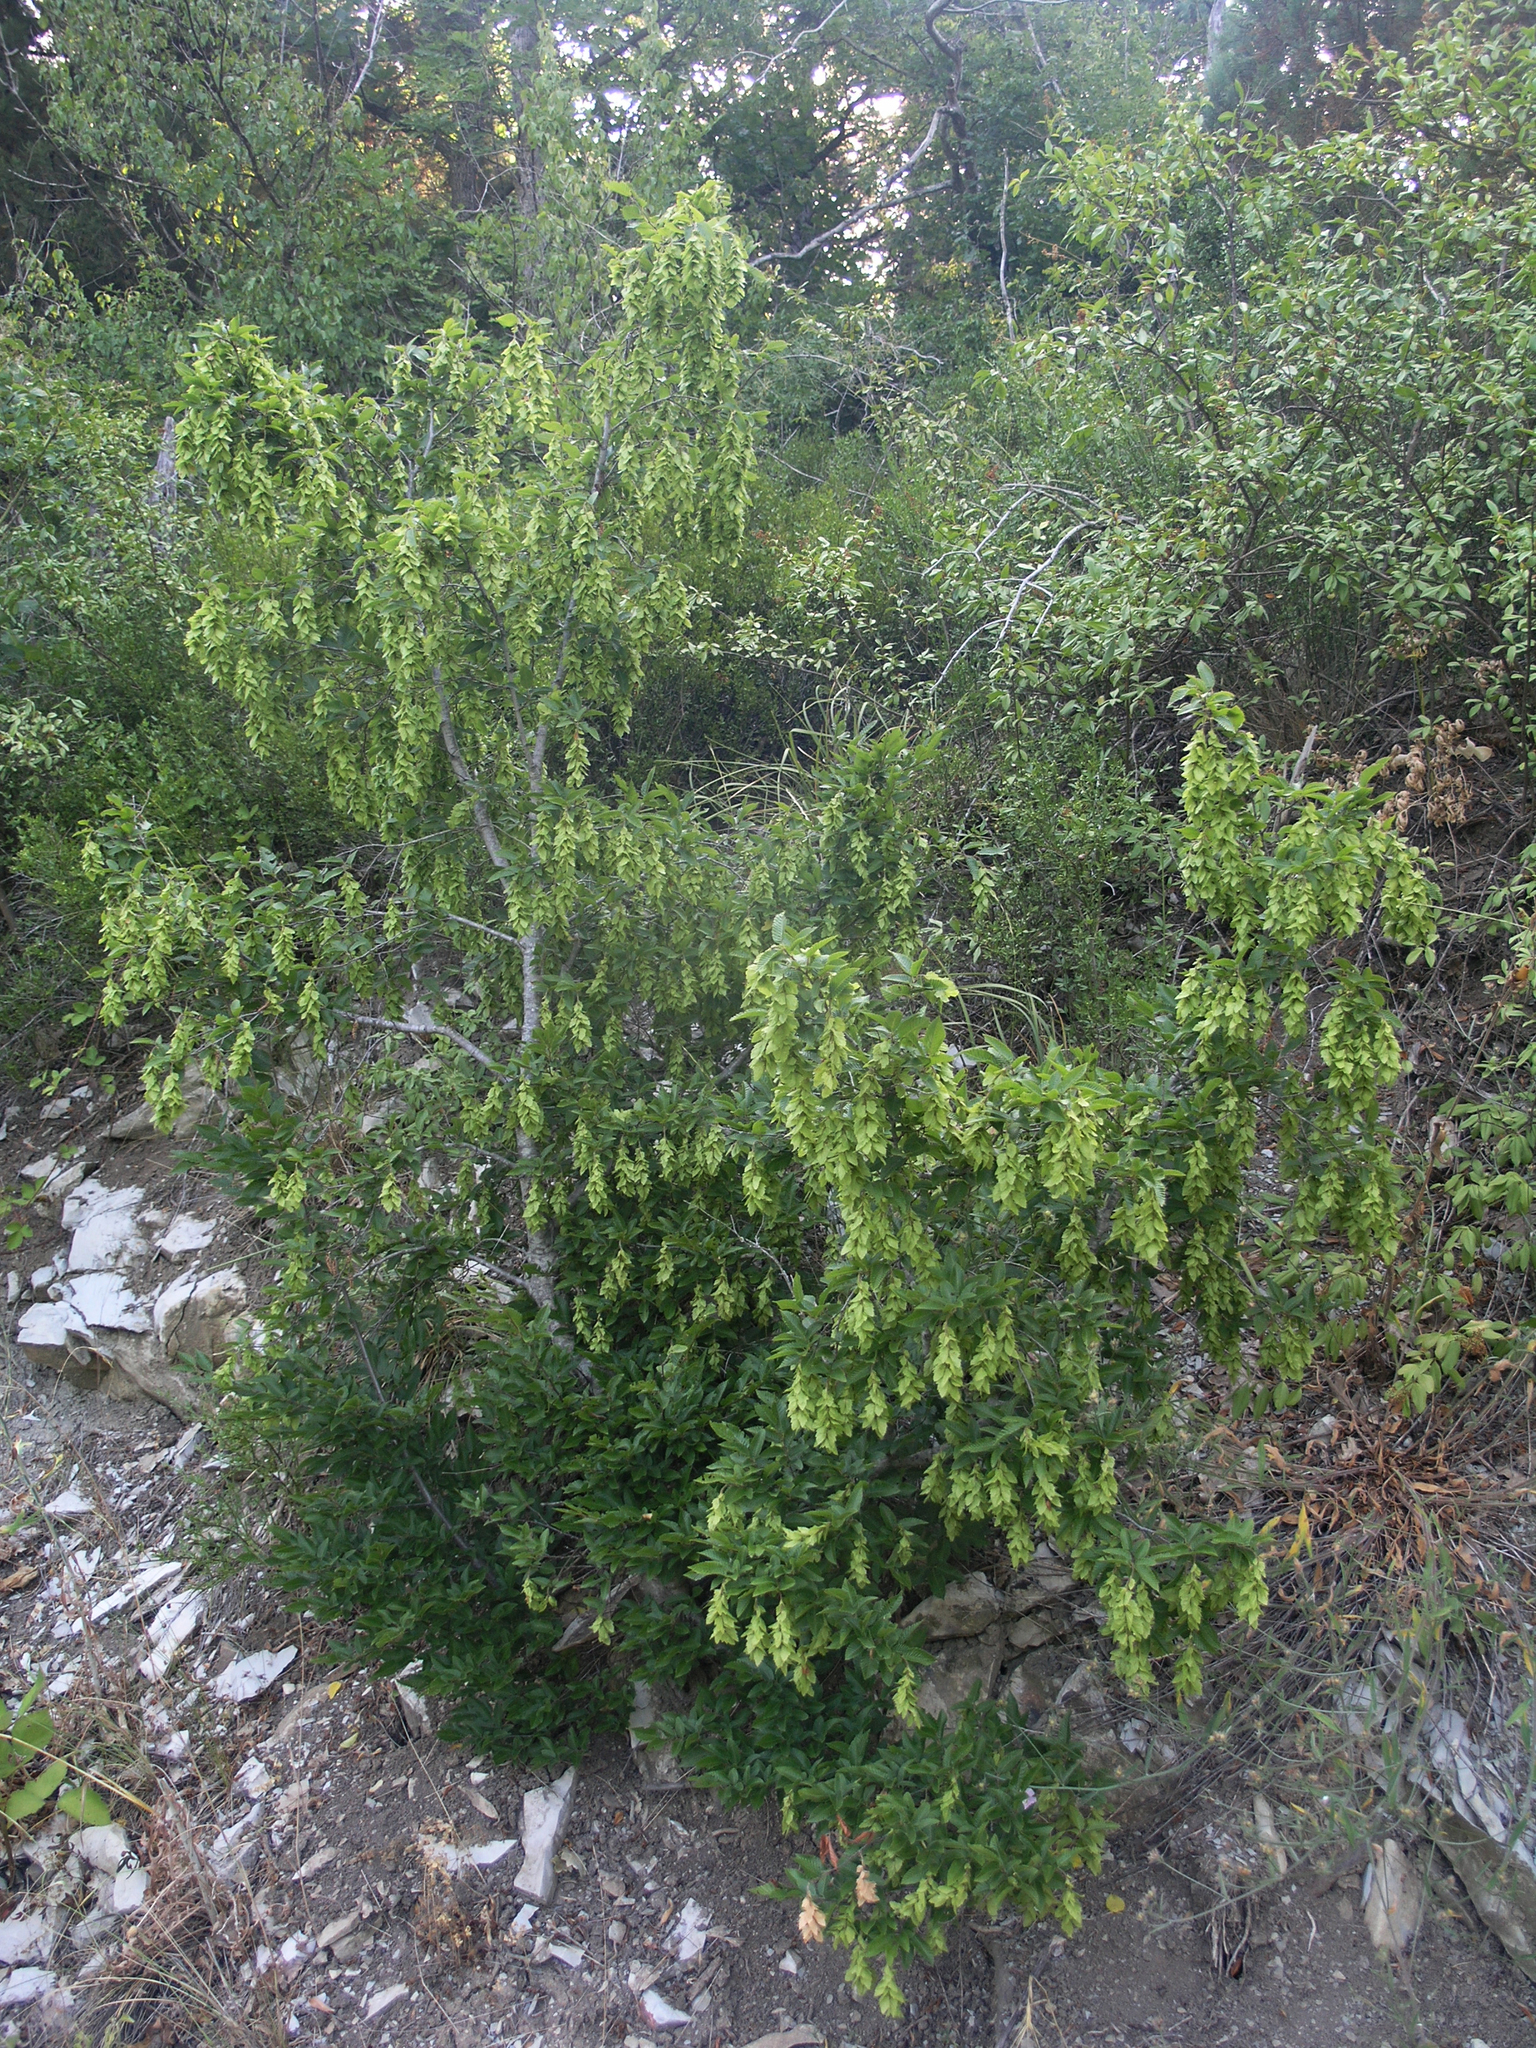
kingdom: Plantae
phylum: Tracheophyta
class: Magnoliopsida
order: Fagales
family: Betulaceae
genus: Carpinus
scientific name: Carpinus orientalis
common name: Eastern hornbeam
